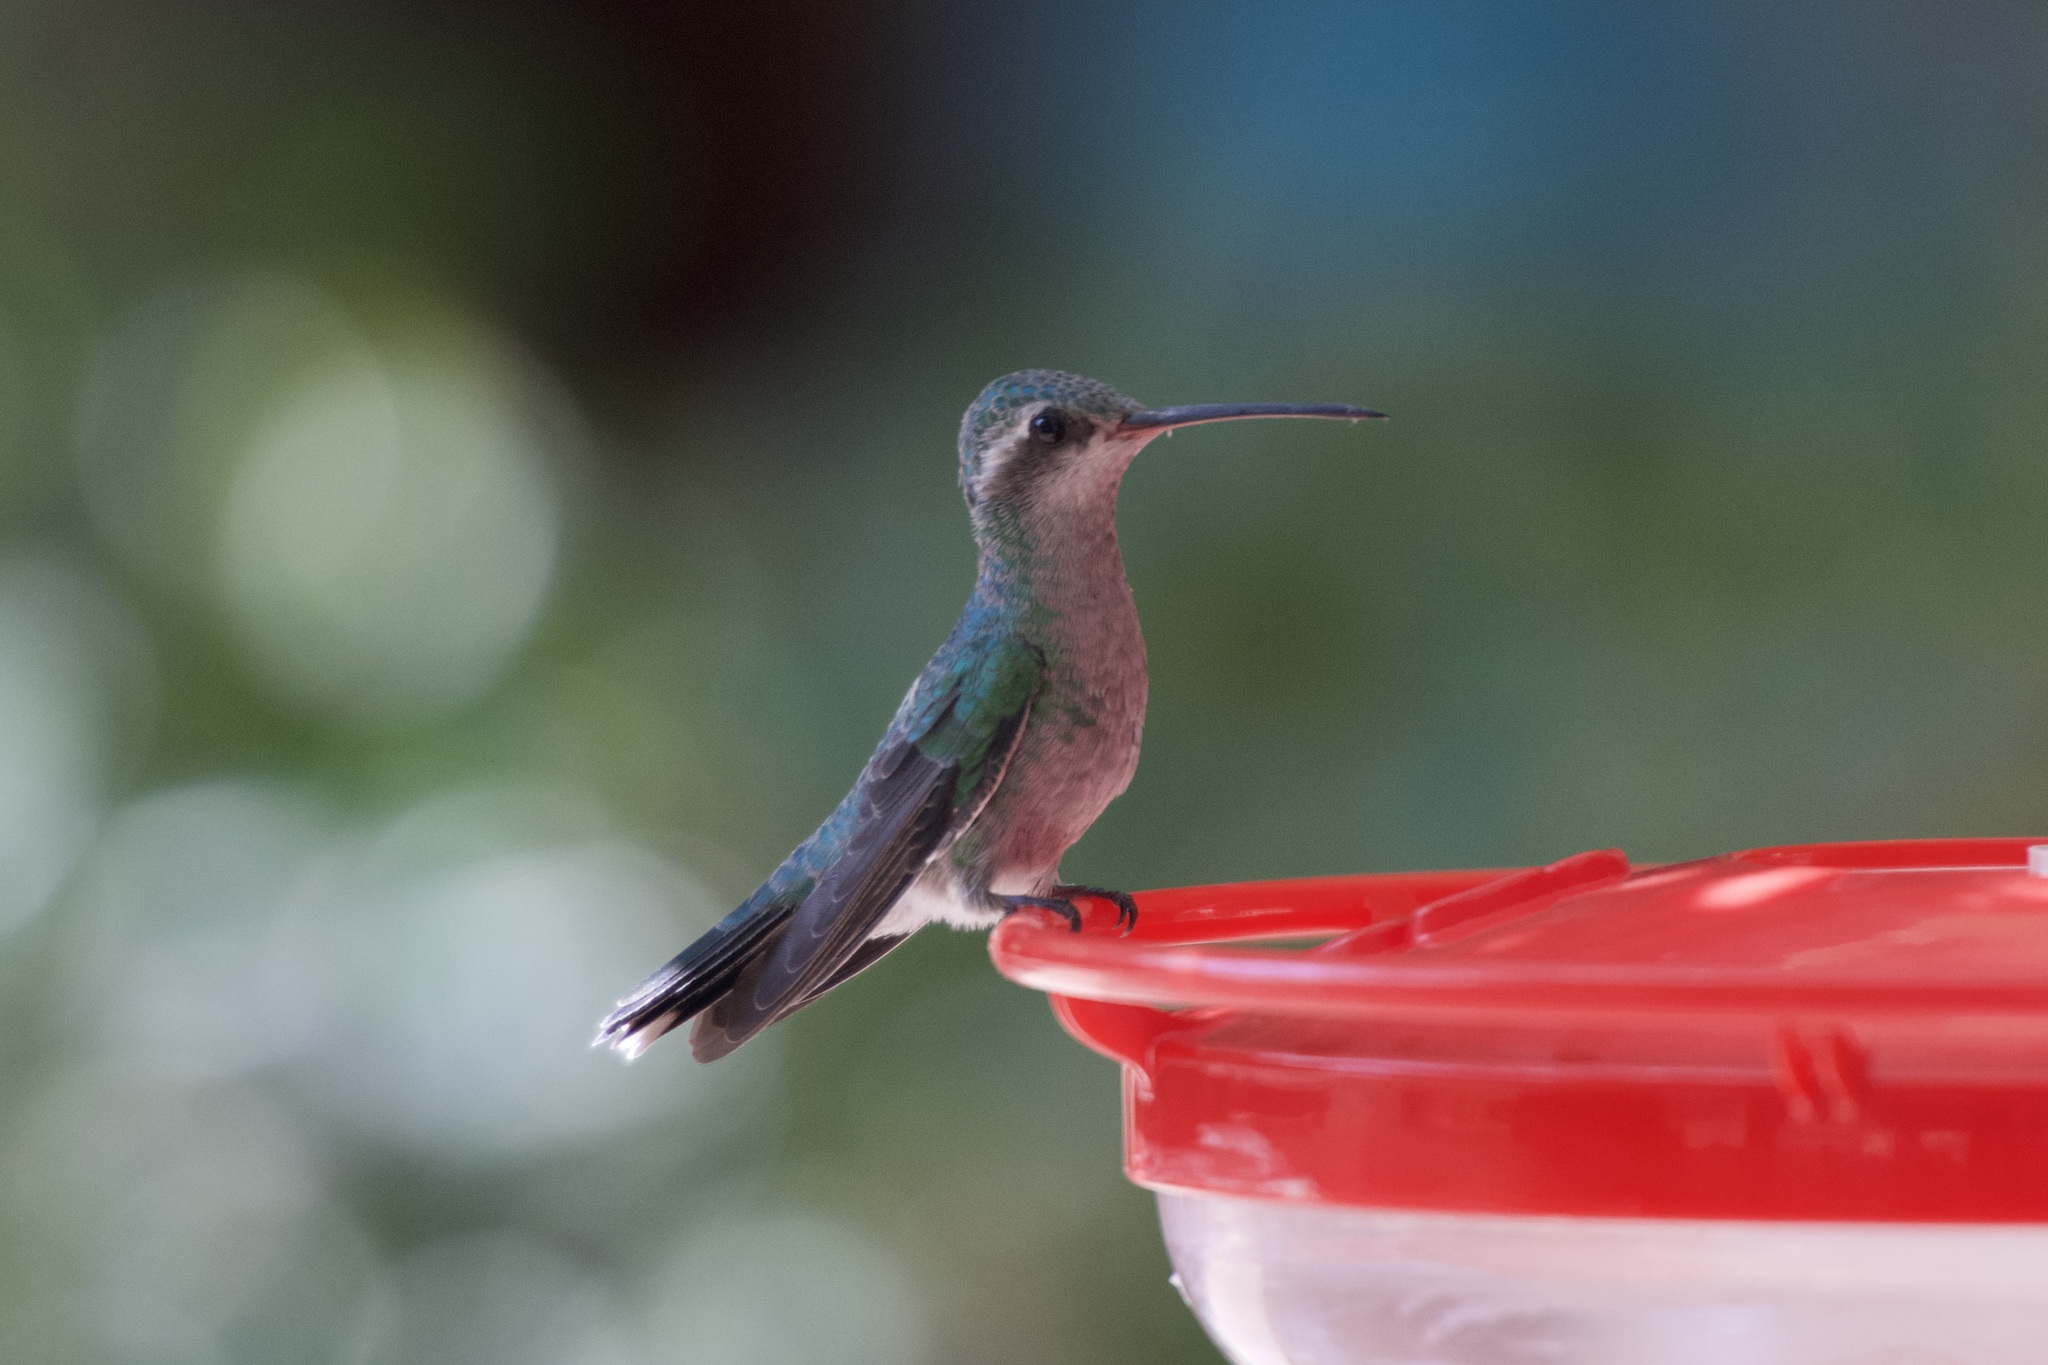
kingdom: Animalia
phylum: Chordata
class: Aves
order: Apodiformes
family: Trochilidae
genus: Cynanthus
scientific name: Cynanthus latirostris
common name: Broad-billed hummingbird
